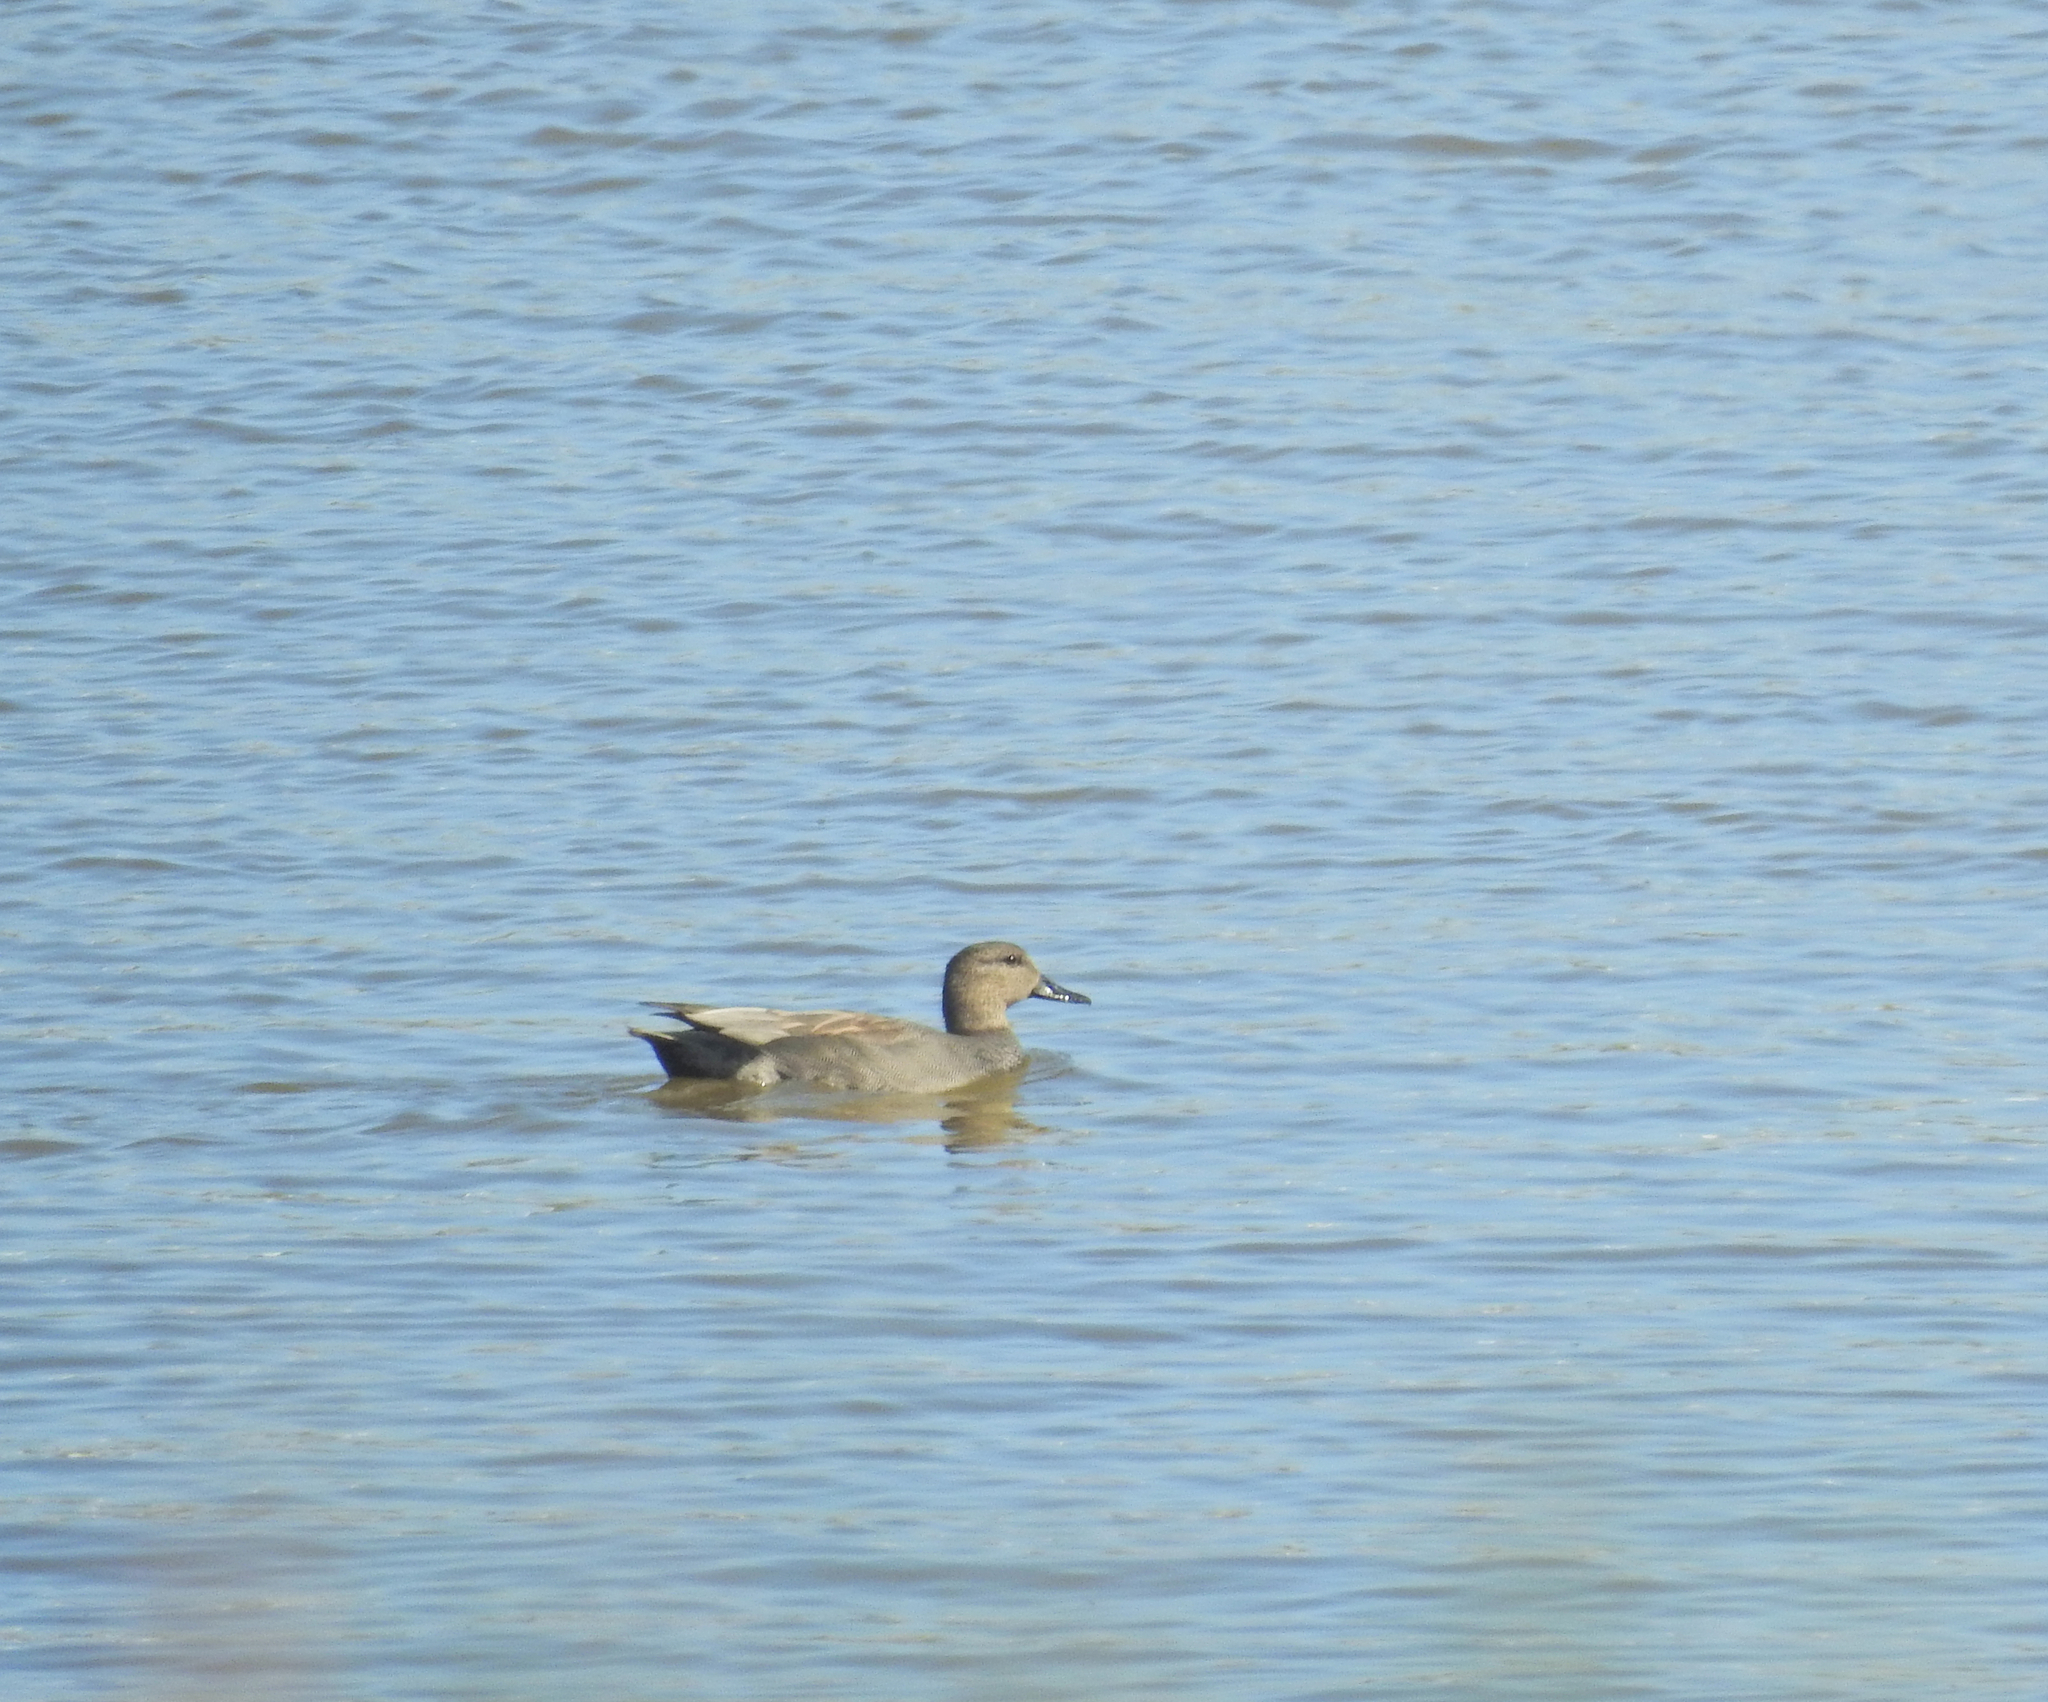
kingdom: Animalia
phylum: Chordata
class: Aves
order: Anseriformes
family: Anatidae
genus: Mareca
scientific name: Mareca strepera
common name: Gadwall
